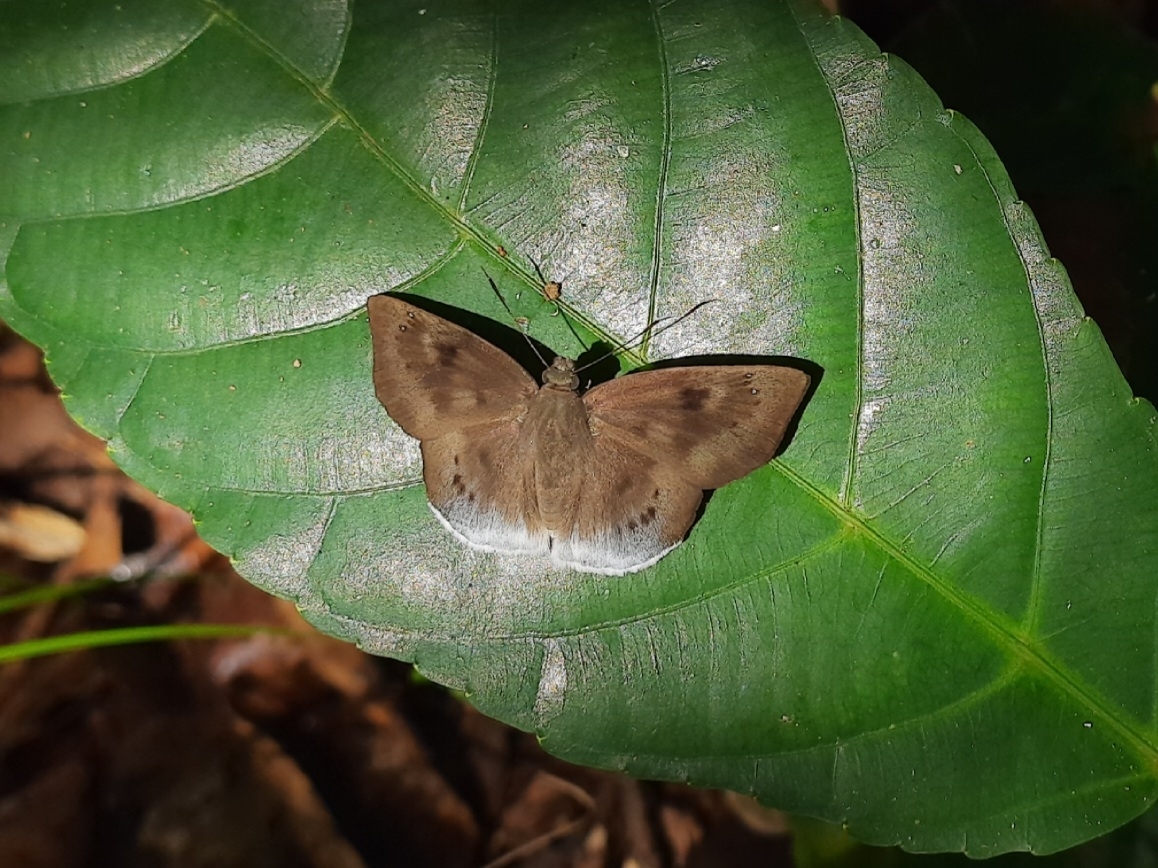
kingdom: Animalia
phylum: Arthropoda
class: Insecta
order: Lepidoptera
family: Hesperiidae
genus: Tagiades
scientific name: Tagiades gana
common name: Suffused snow flat
